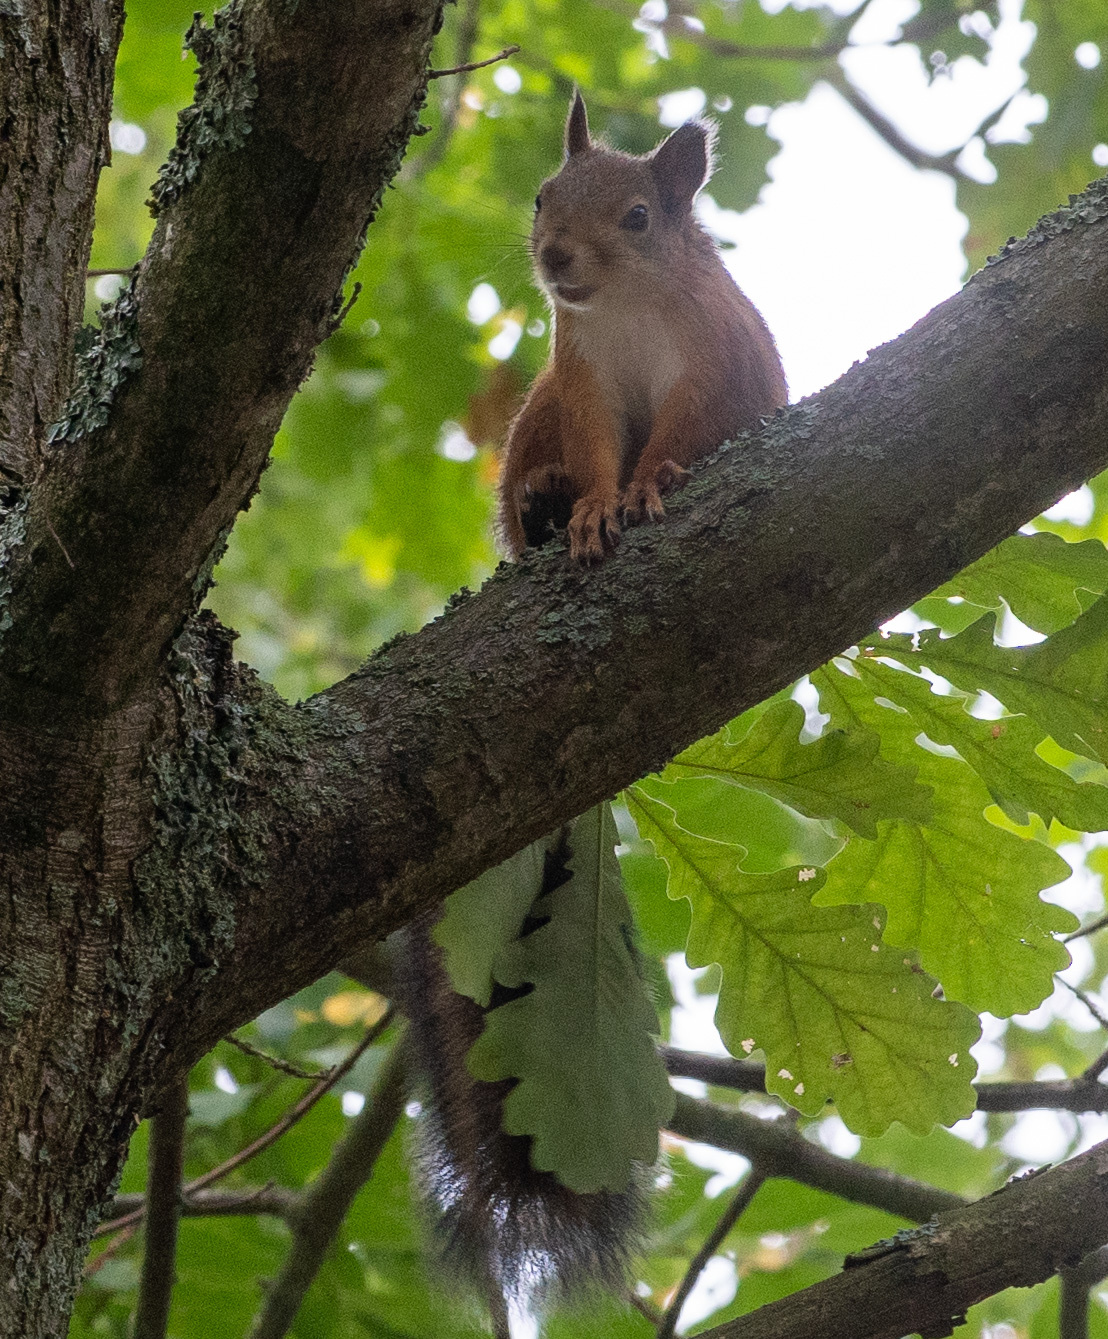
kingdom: Animalia
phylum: Chordata
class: Mammalia
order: Rodentia
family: Sciuridae
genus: Sciurus
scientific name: Sciurus vulgaris
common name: Eurasian red squirrel
